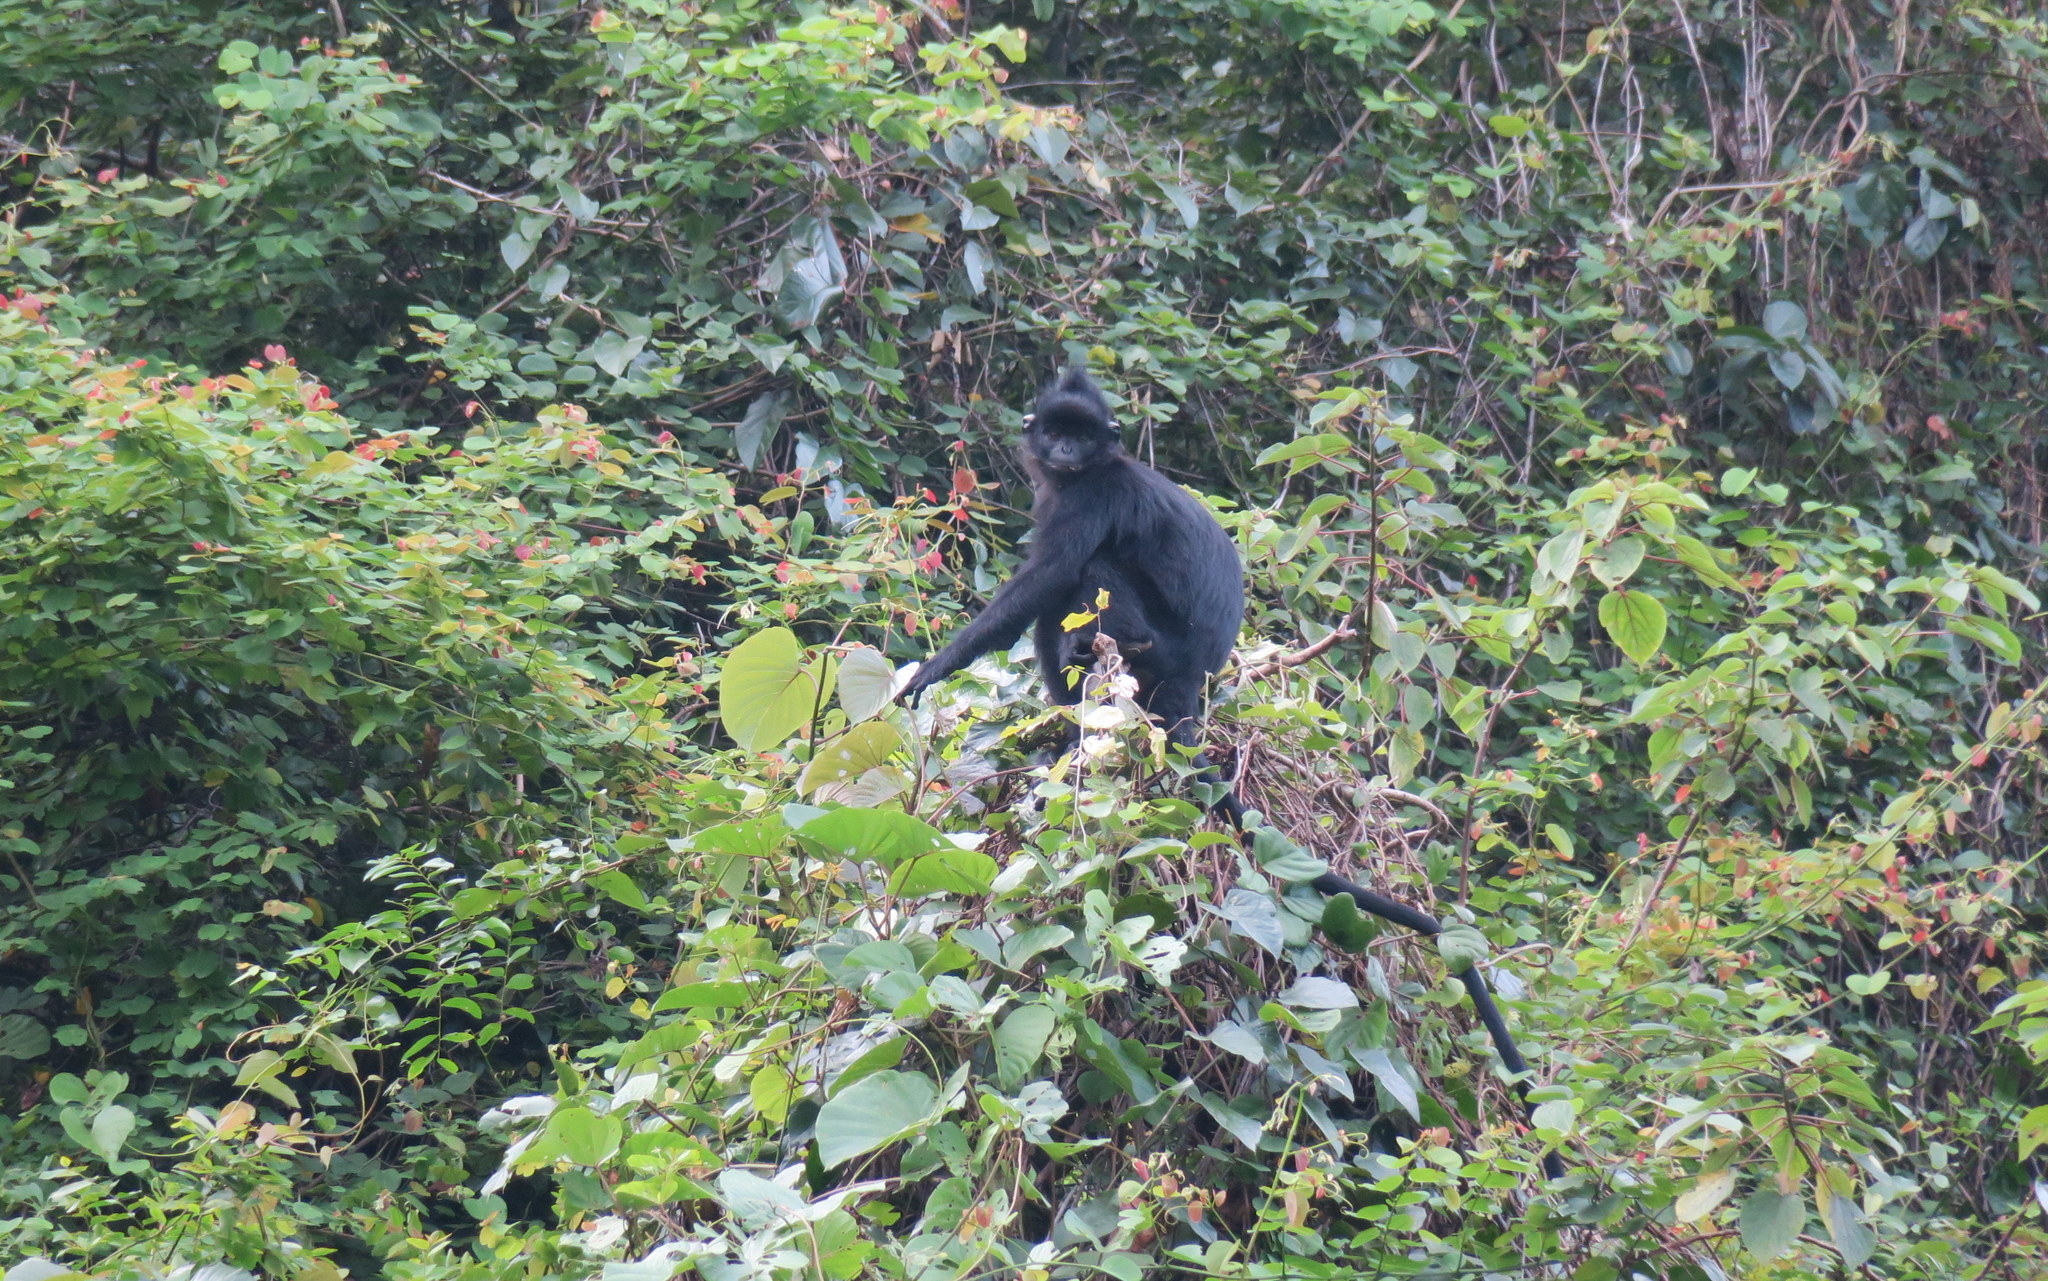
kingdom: Animalia
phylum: Chordata
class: Mammalia
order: Primates
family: Cercopithecidae
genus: Trachypithecus
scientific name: Trachypithecus hatinhensis
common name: Hatinh langur
